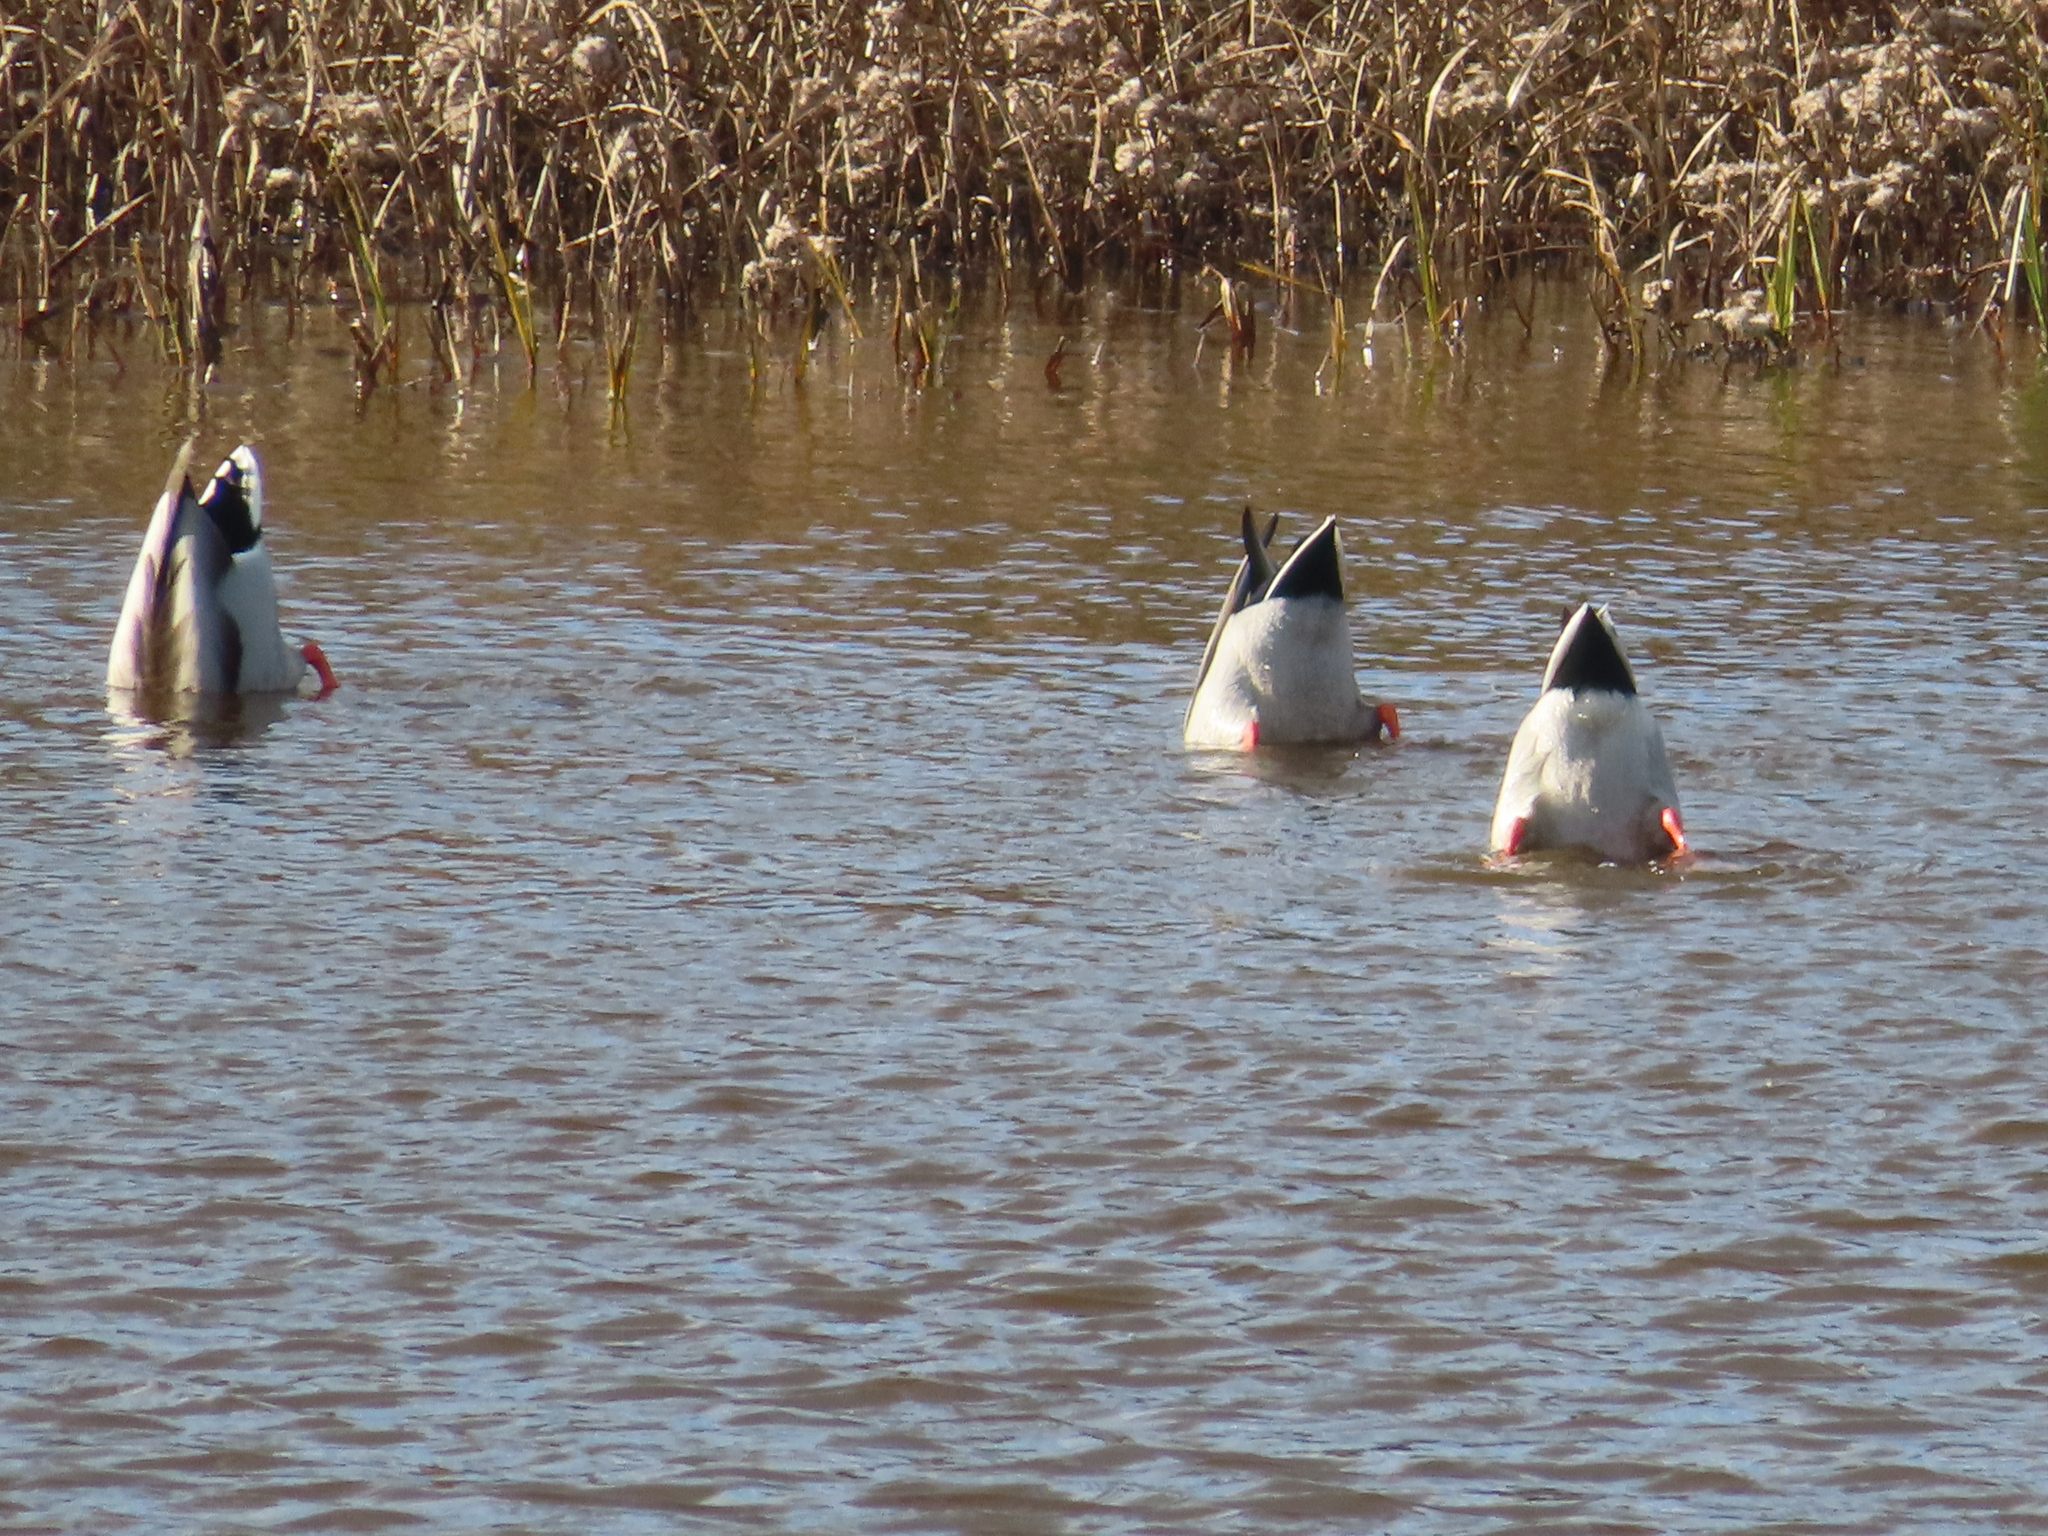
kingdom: Animalia
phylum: Chordata
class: Aves
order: Anseriformes
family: Anatidae
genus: Anas
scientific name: Anas platyrhynchos
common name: Mallard
